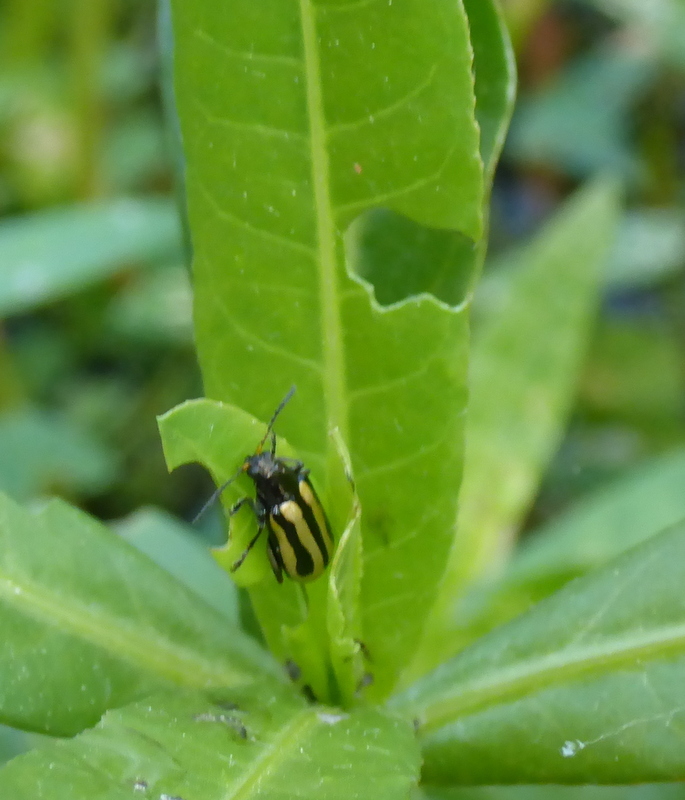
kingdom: Animalia
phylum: Arthropoda
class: Insecta
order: Coleoptera
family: Chrysomelidae
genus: Agasicles
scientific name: Agasicles hygrophila
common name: Alligatorweed flea beetle
